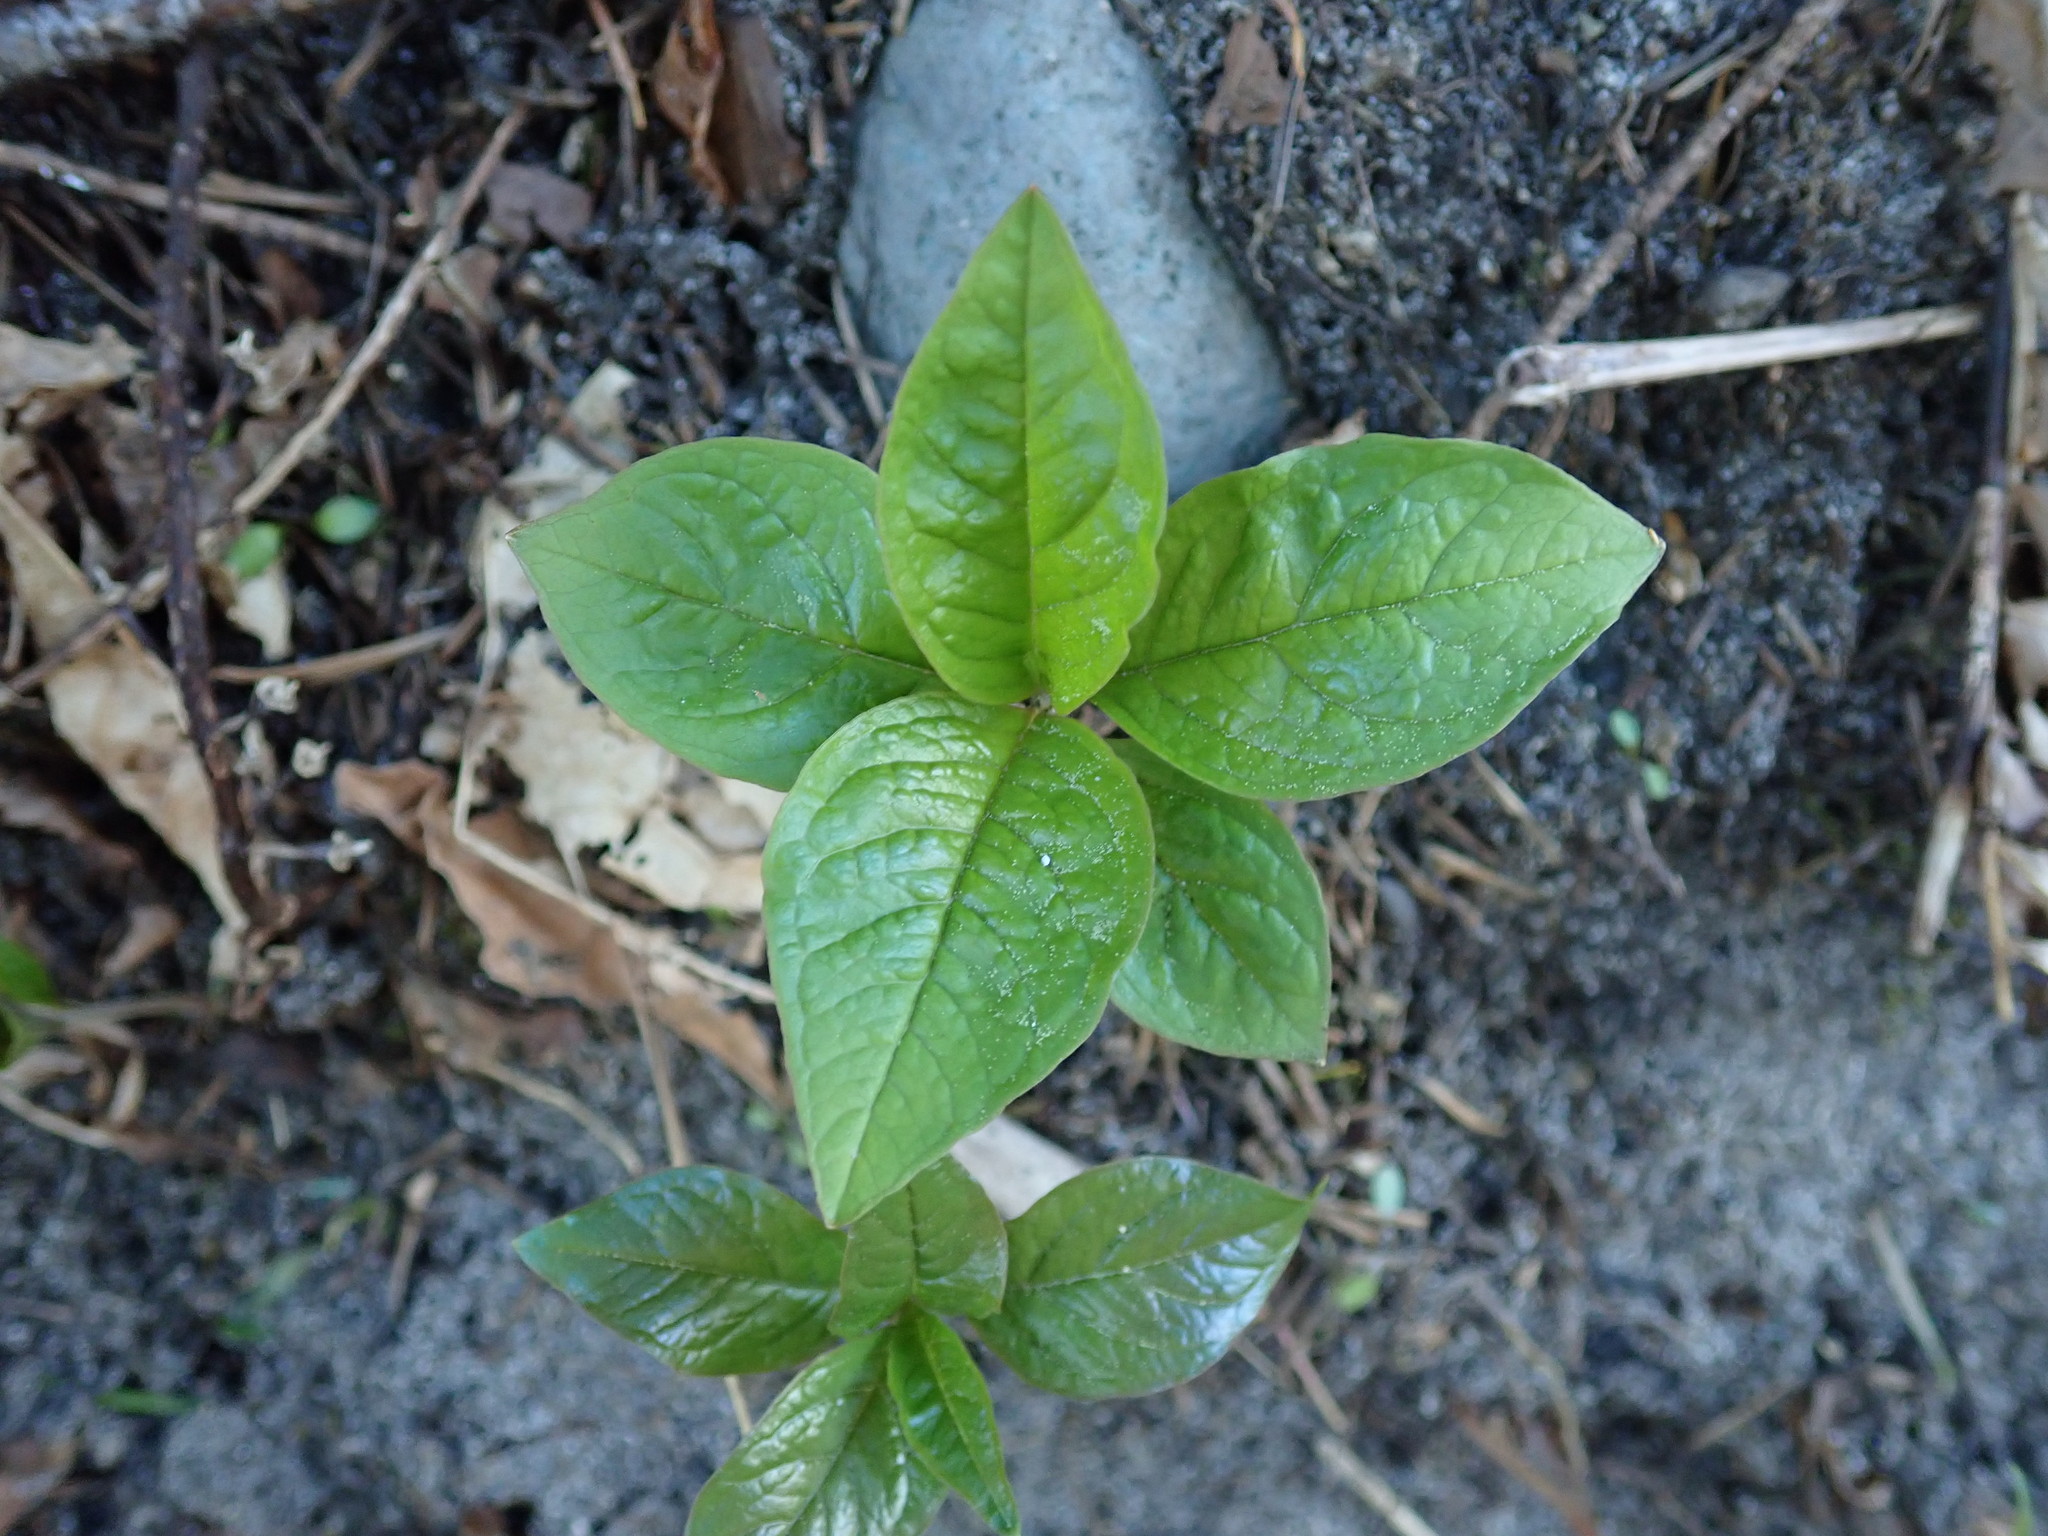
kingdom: Plantae
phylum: Tracheophyta
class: Magnoliopsida
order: Ericales
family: Primulaceae
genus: Lysimachia
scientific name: Lysimachia latifolia
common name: Pacific starflower
